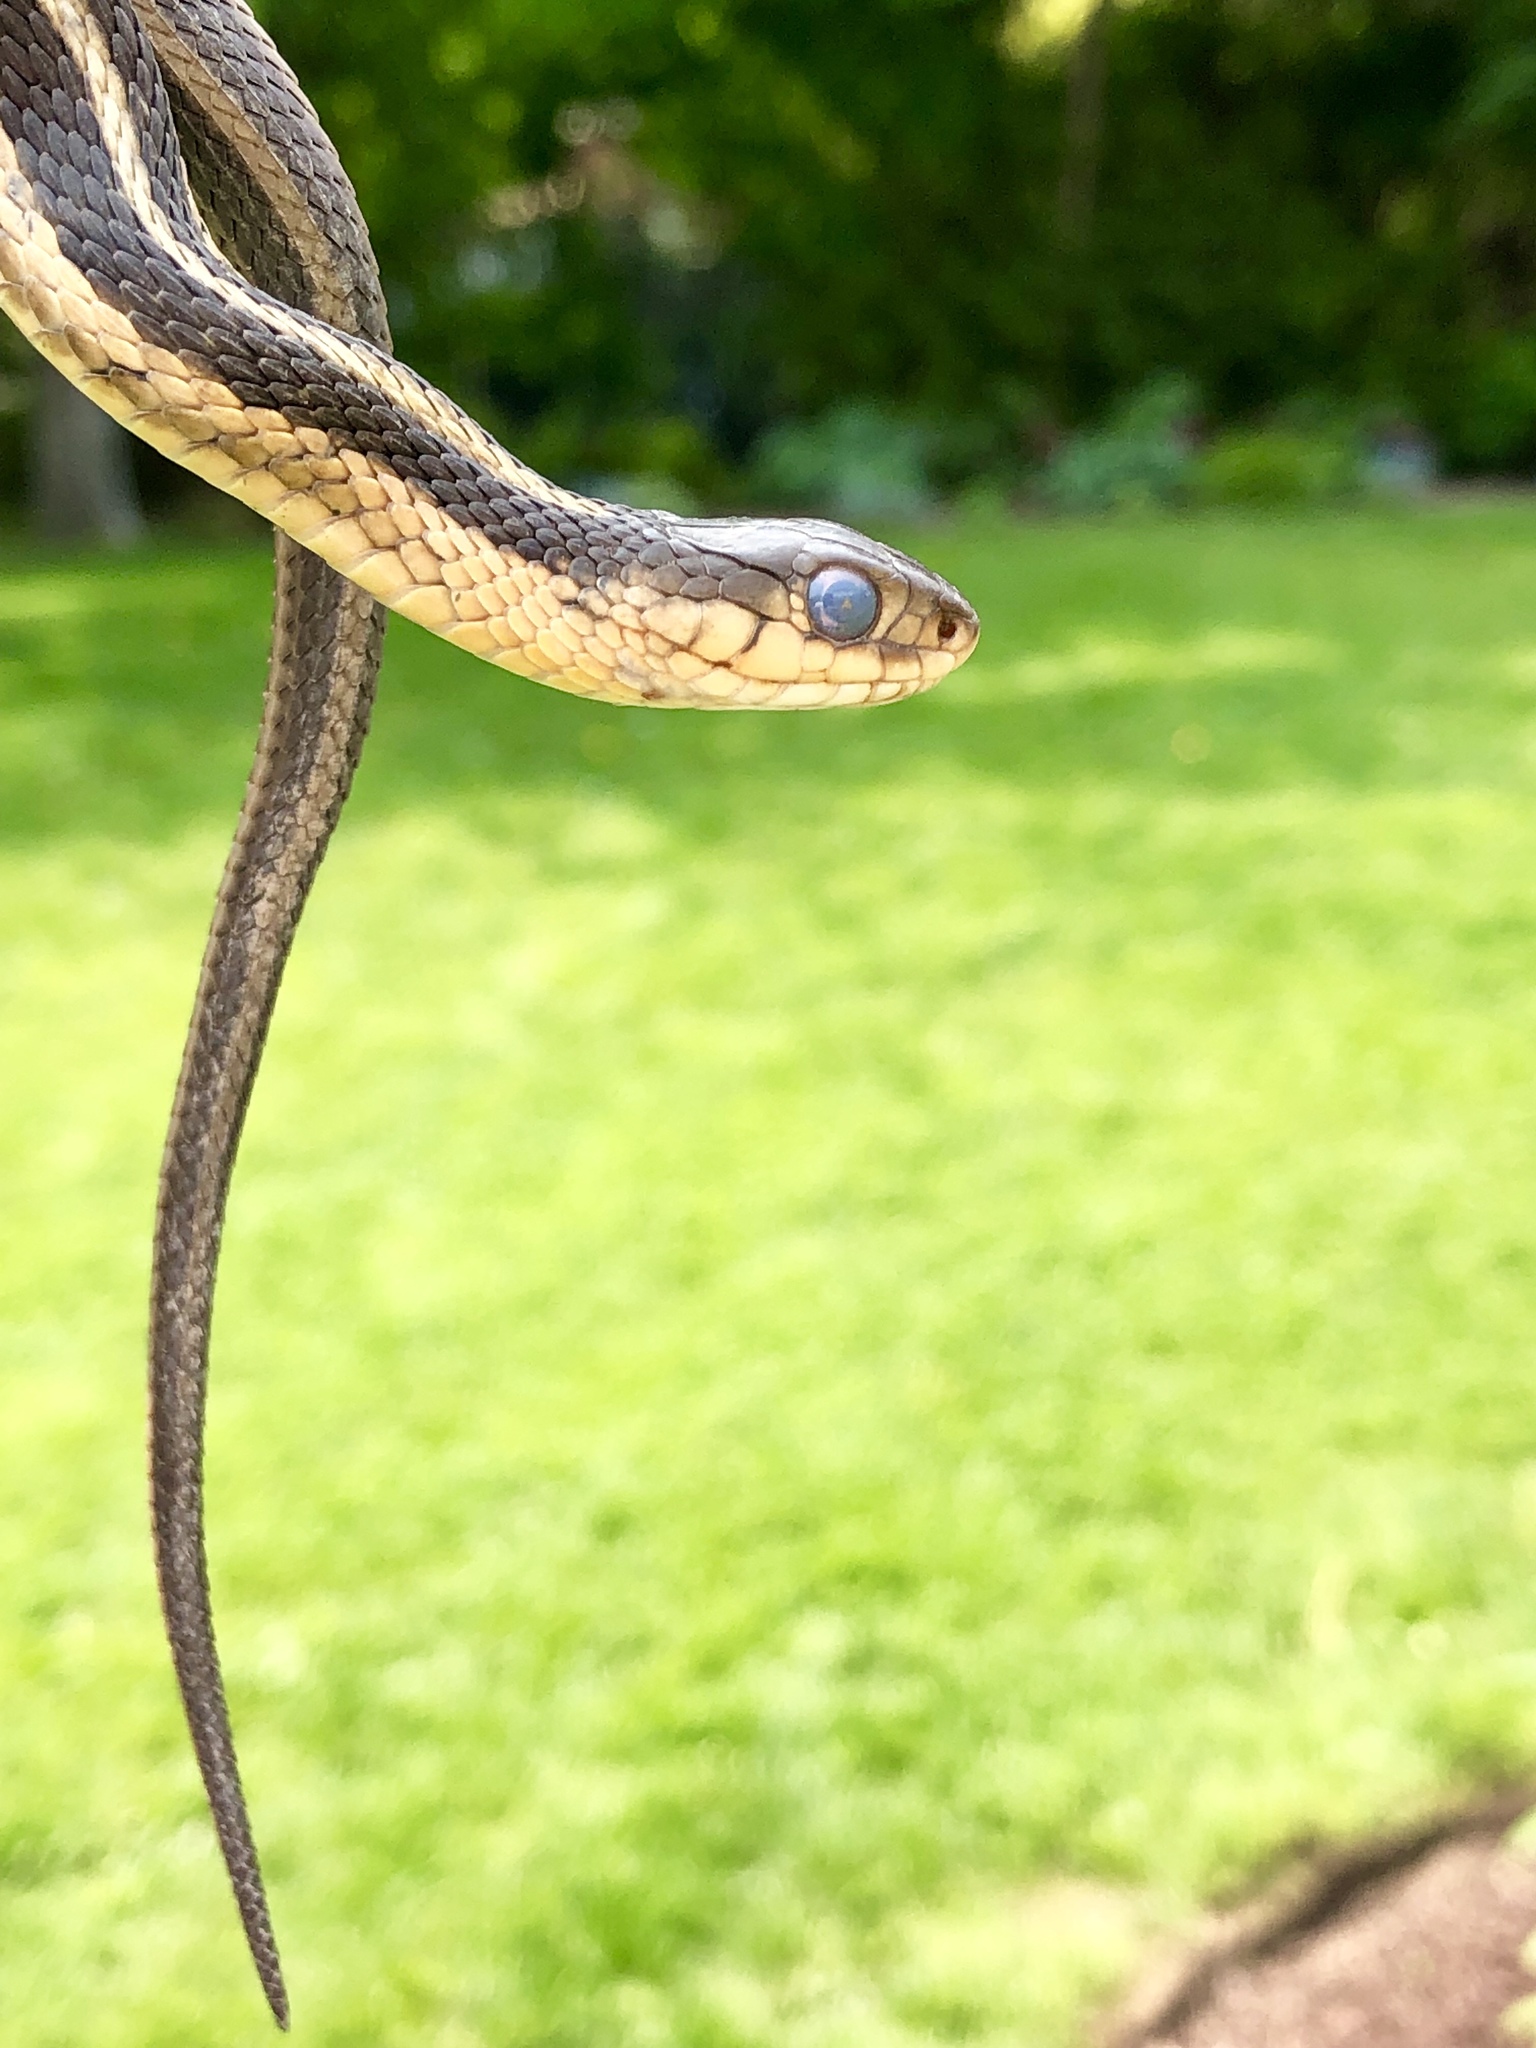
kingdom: Animalia
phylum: Chordata
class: Squamata
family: Colubridae
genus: Thamnophis
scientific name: Thamnophis sirtalis
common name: Common garter snake
